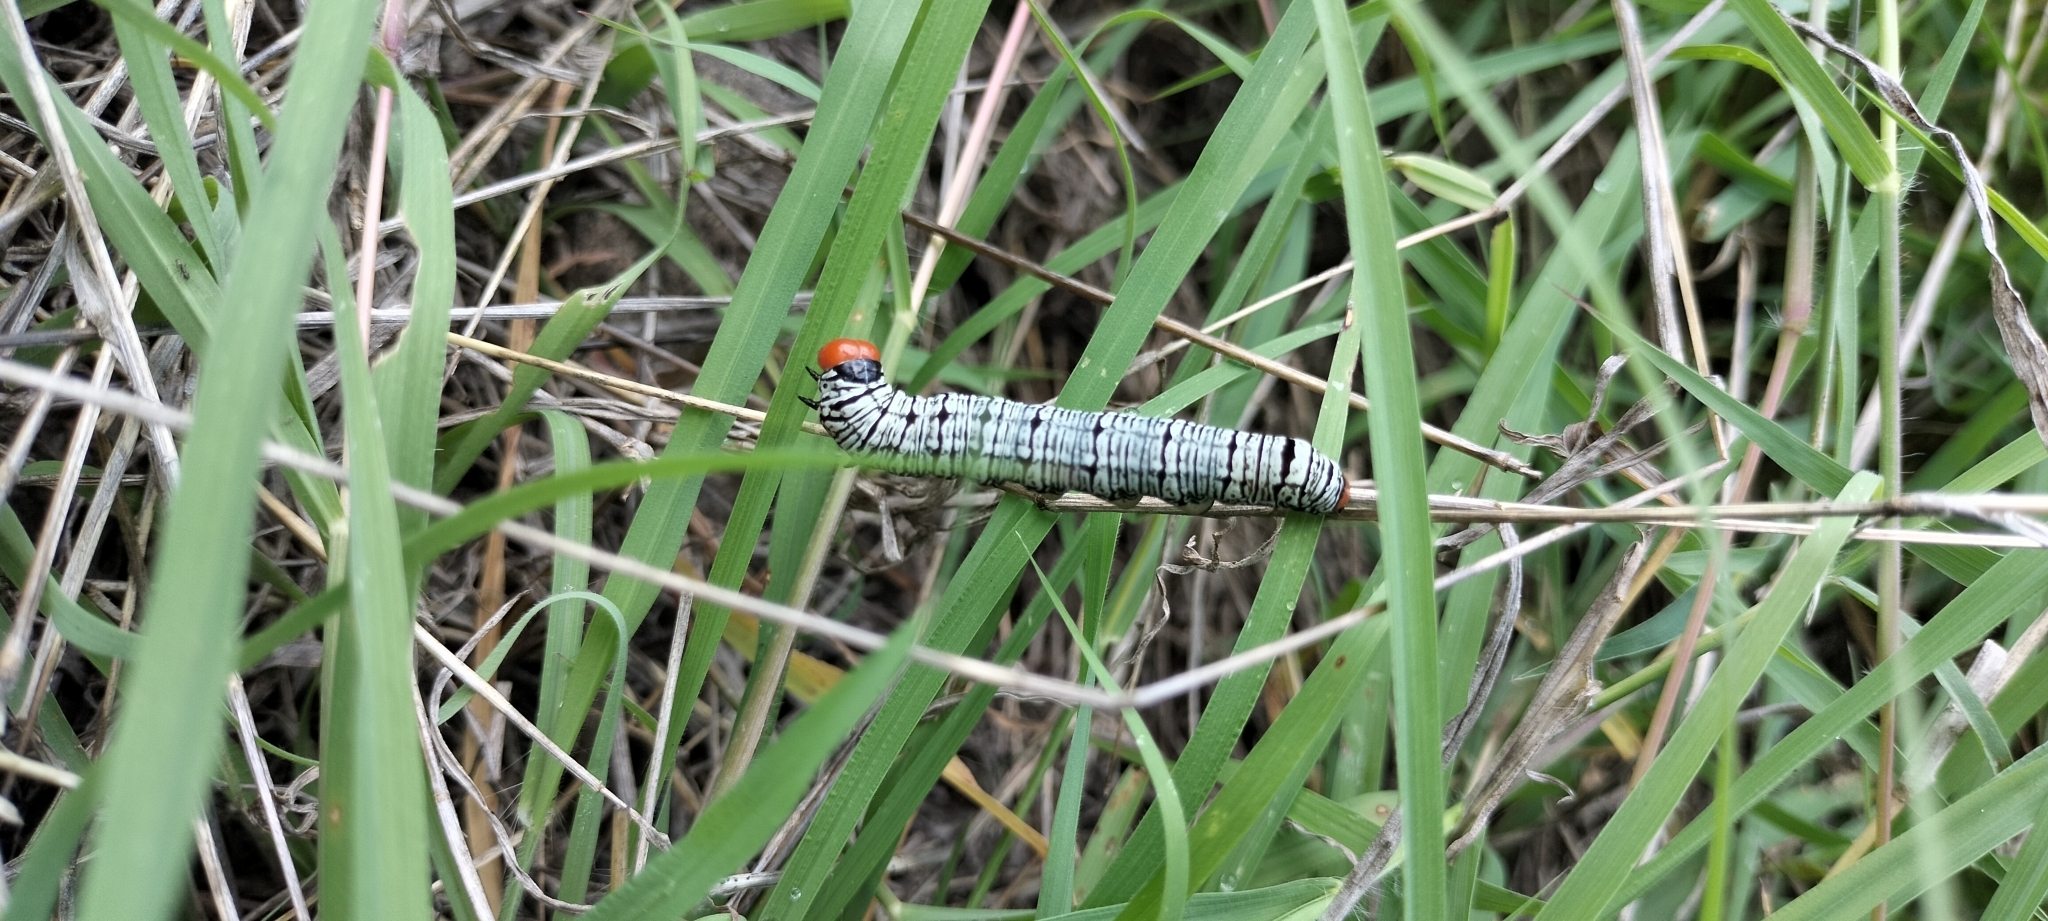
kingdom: Animalia
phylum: Arthropoda
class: Insecta
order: Lepidoptera
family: Erebidae
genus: Diphthera
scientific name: Diphthera festiva
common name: Hieroglyphic moth
